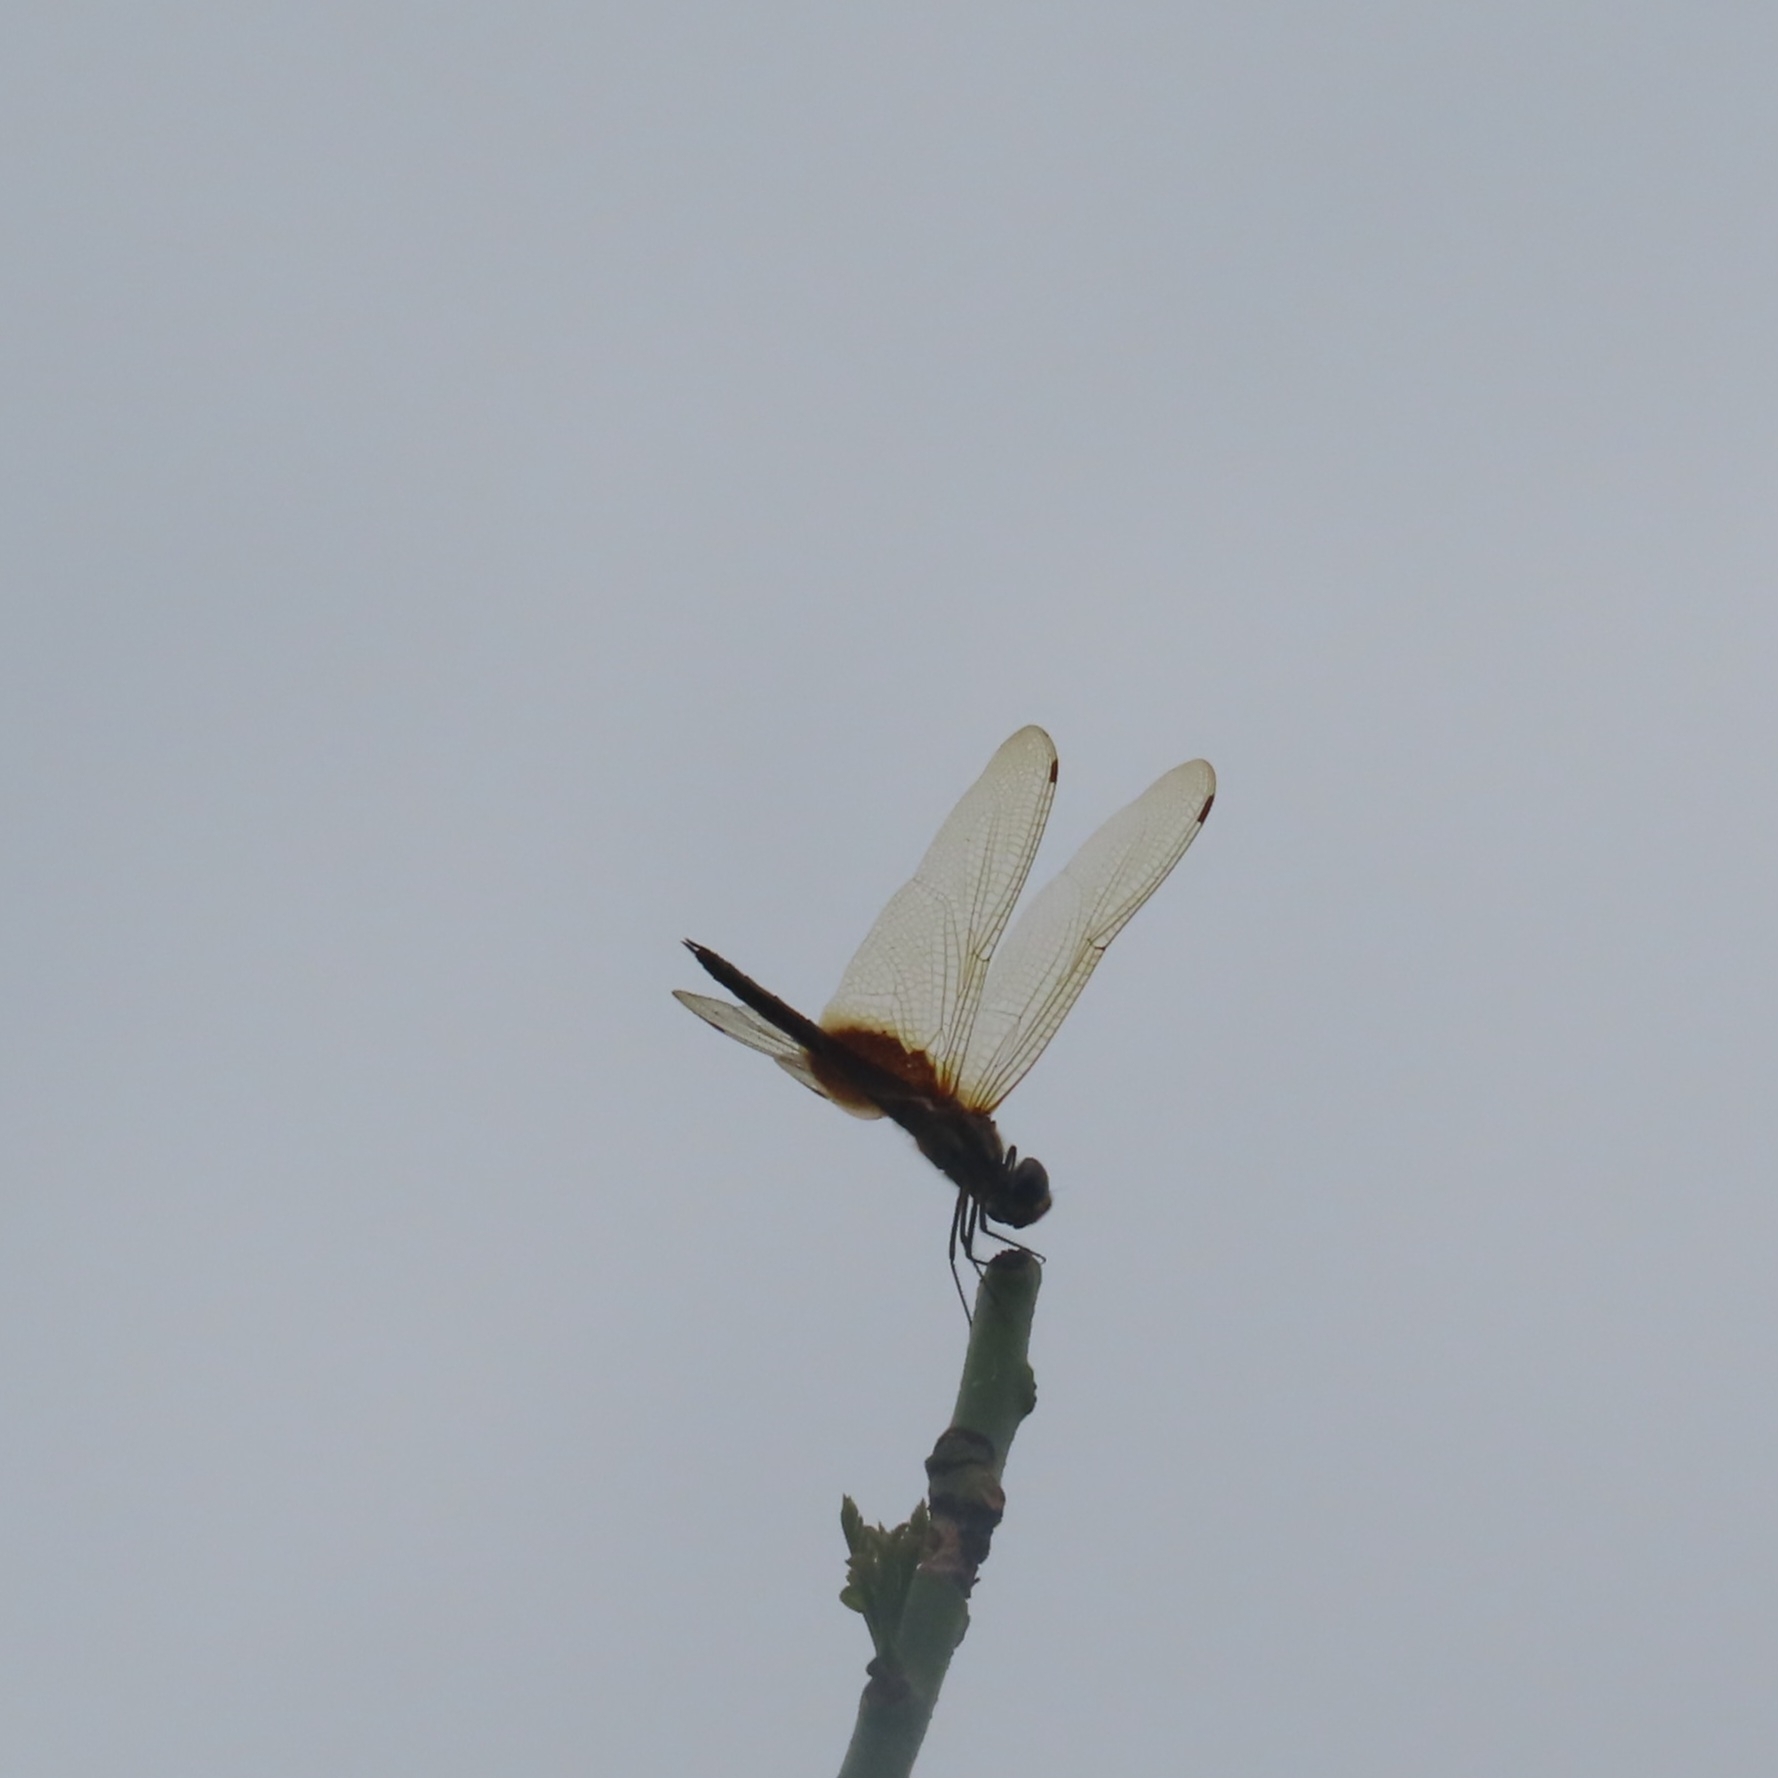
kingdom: Animalia
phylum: Arthropoda
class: Insecta
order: Odonata
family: Libellulidae
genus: Tramea
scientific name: Tramea darwini
